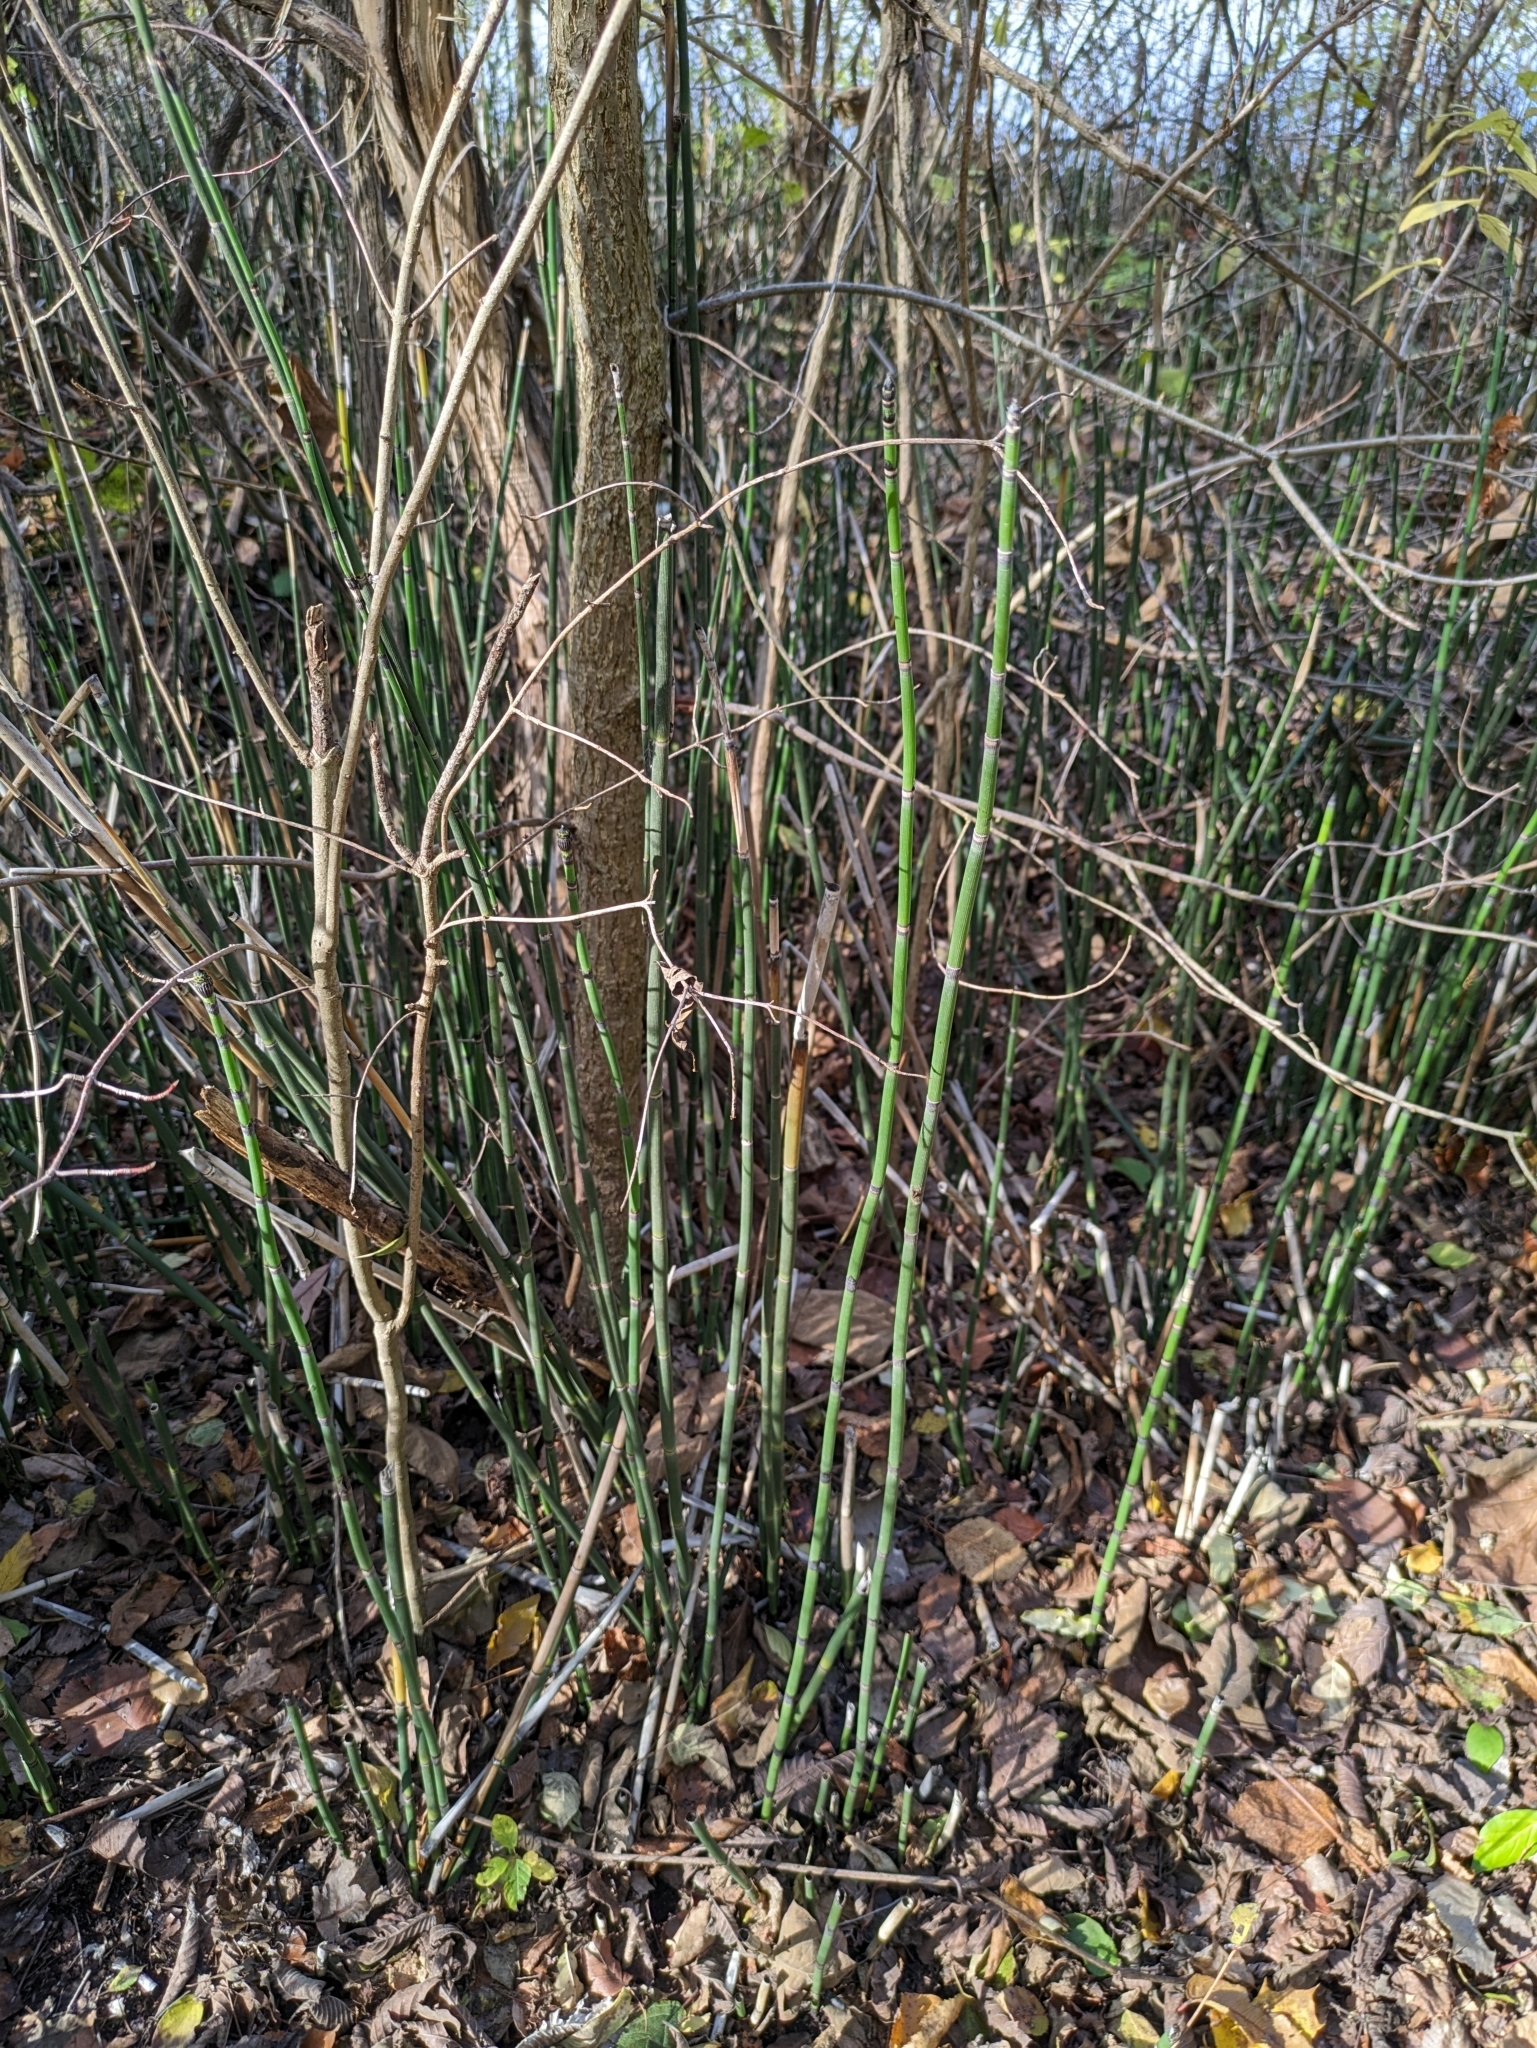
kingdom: Plantae
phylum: Tracheophyta
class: Polypodiopsida
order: Equisetales
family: Equisetaceae
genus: Equisetum
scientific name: Equisetum hyemale
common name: Rough horsetail
